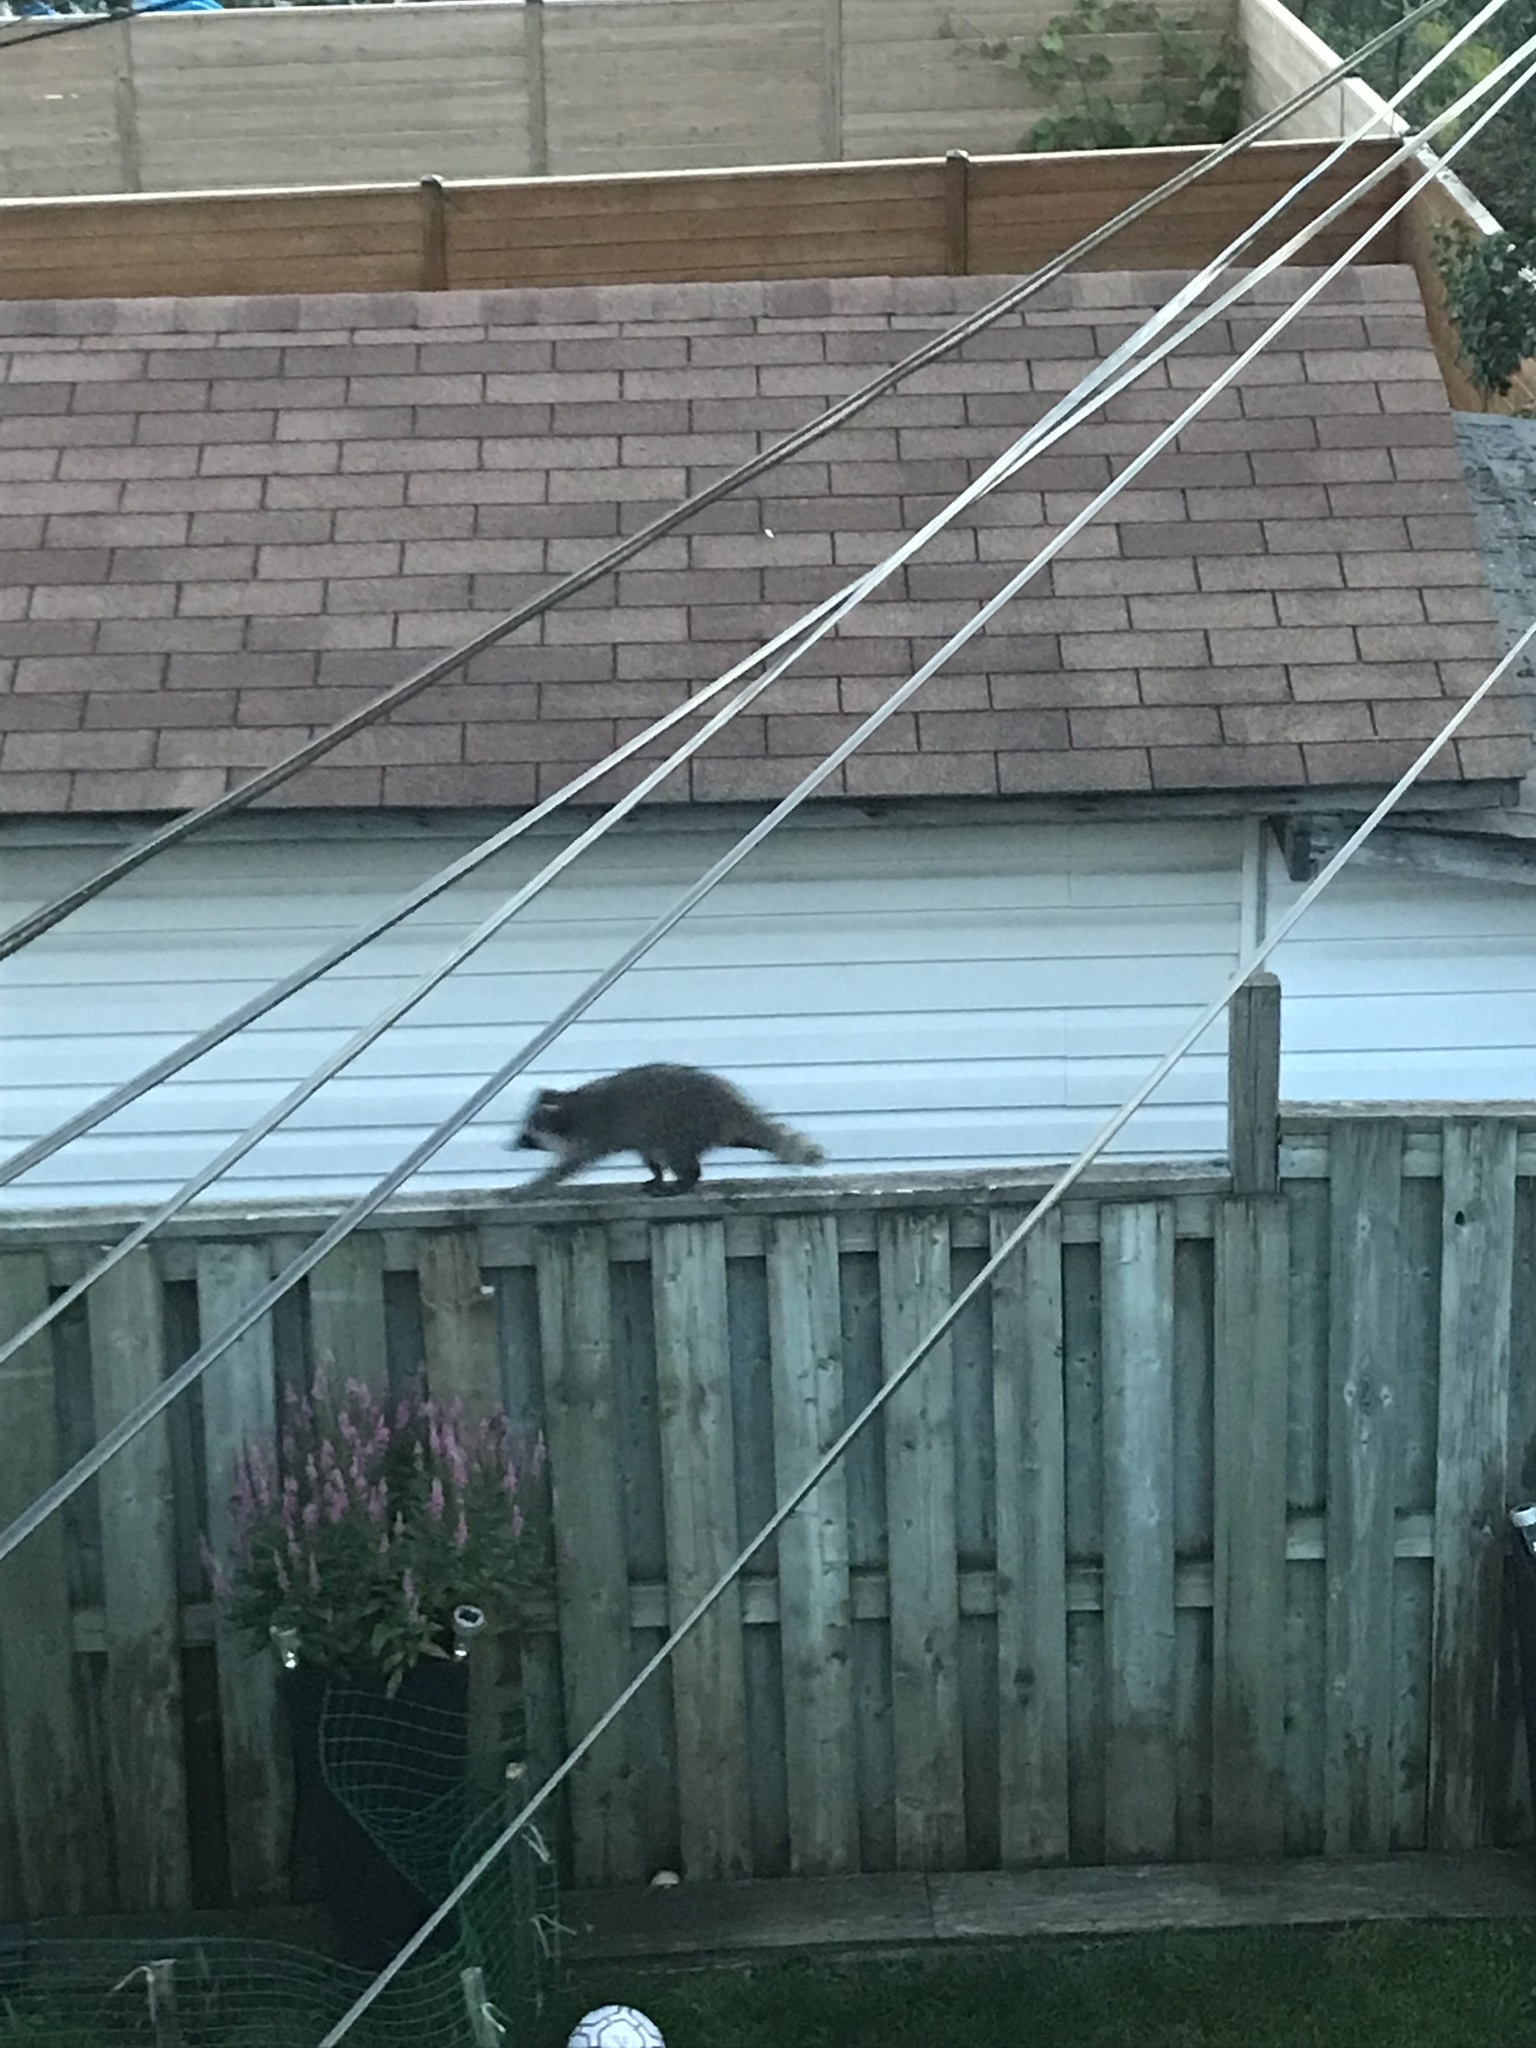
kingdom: Animalia
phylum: Chordata
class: Mammalia
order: Carnivora
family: Procyonidae
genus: Procyon
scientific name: Procyon lotor
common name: Raccoon
